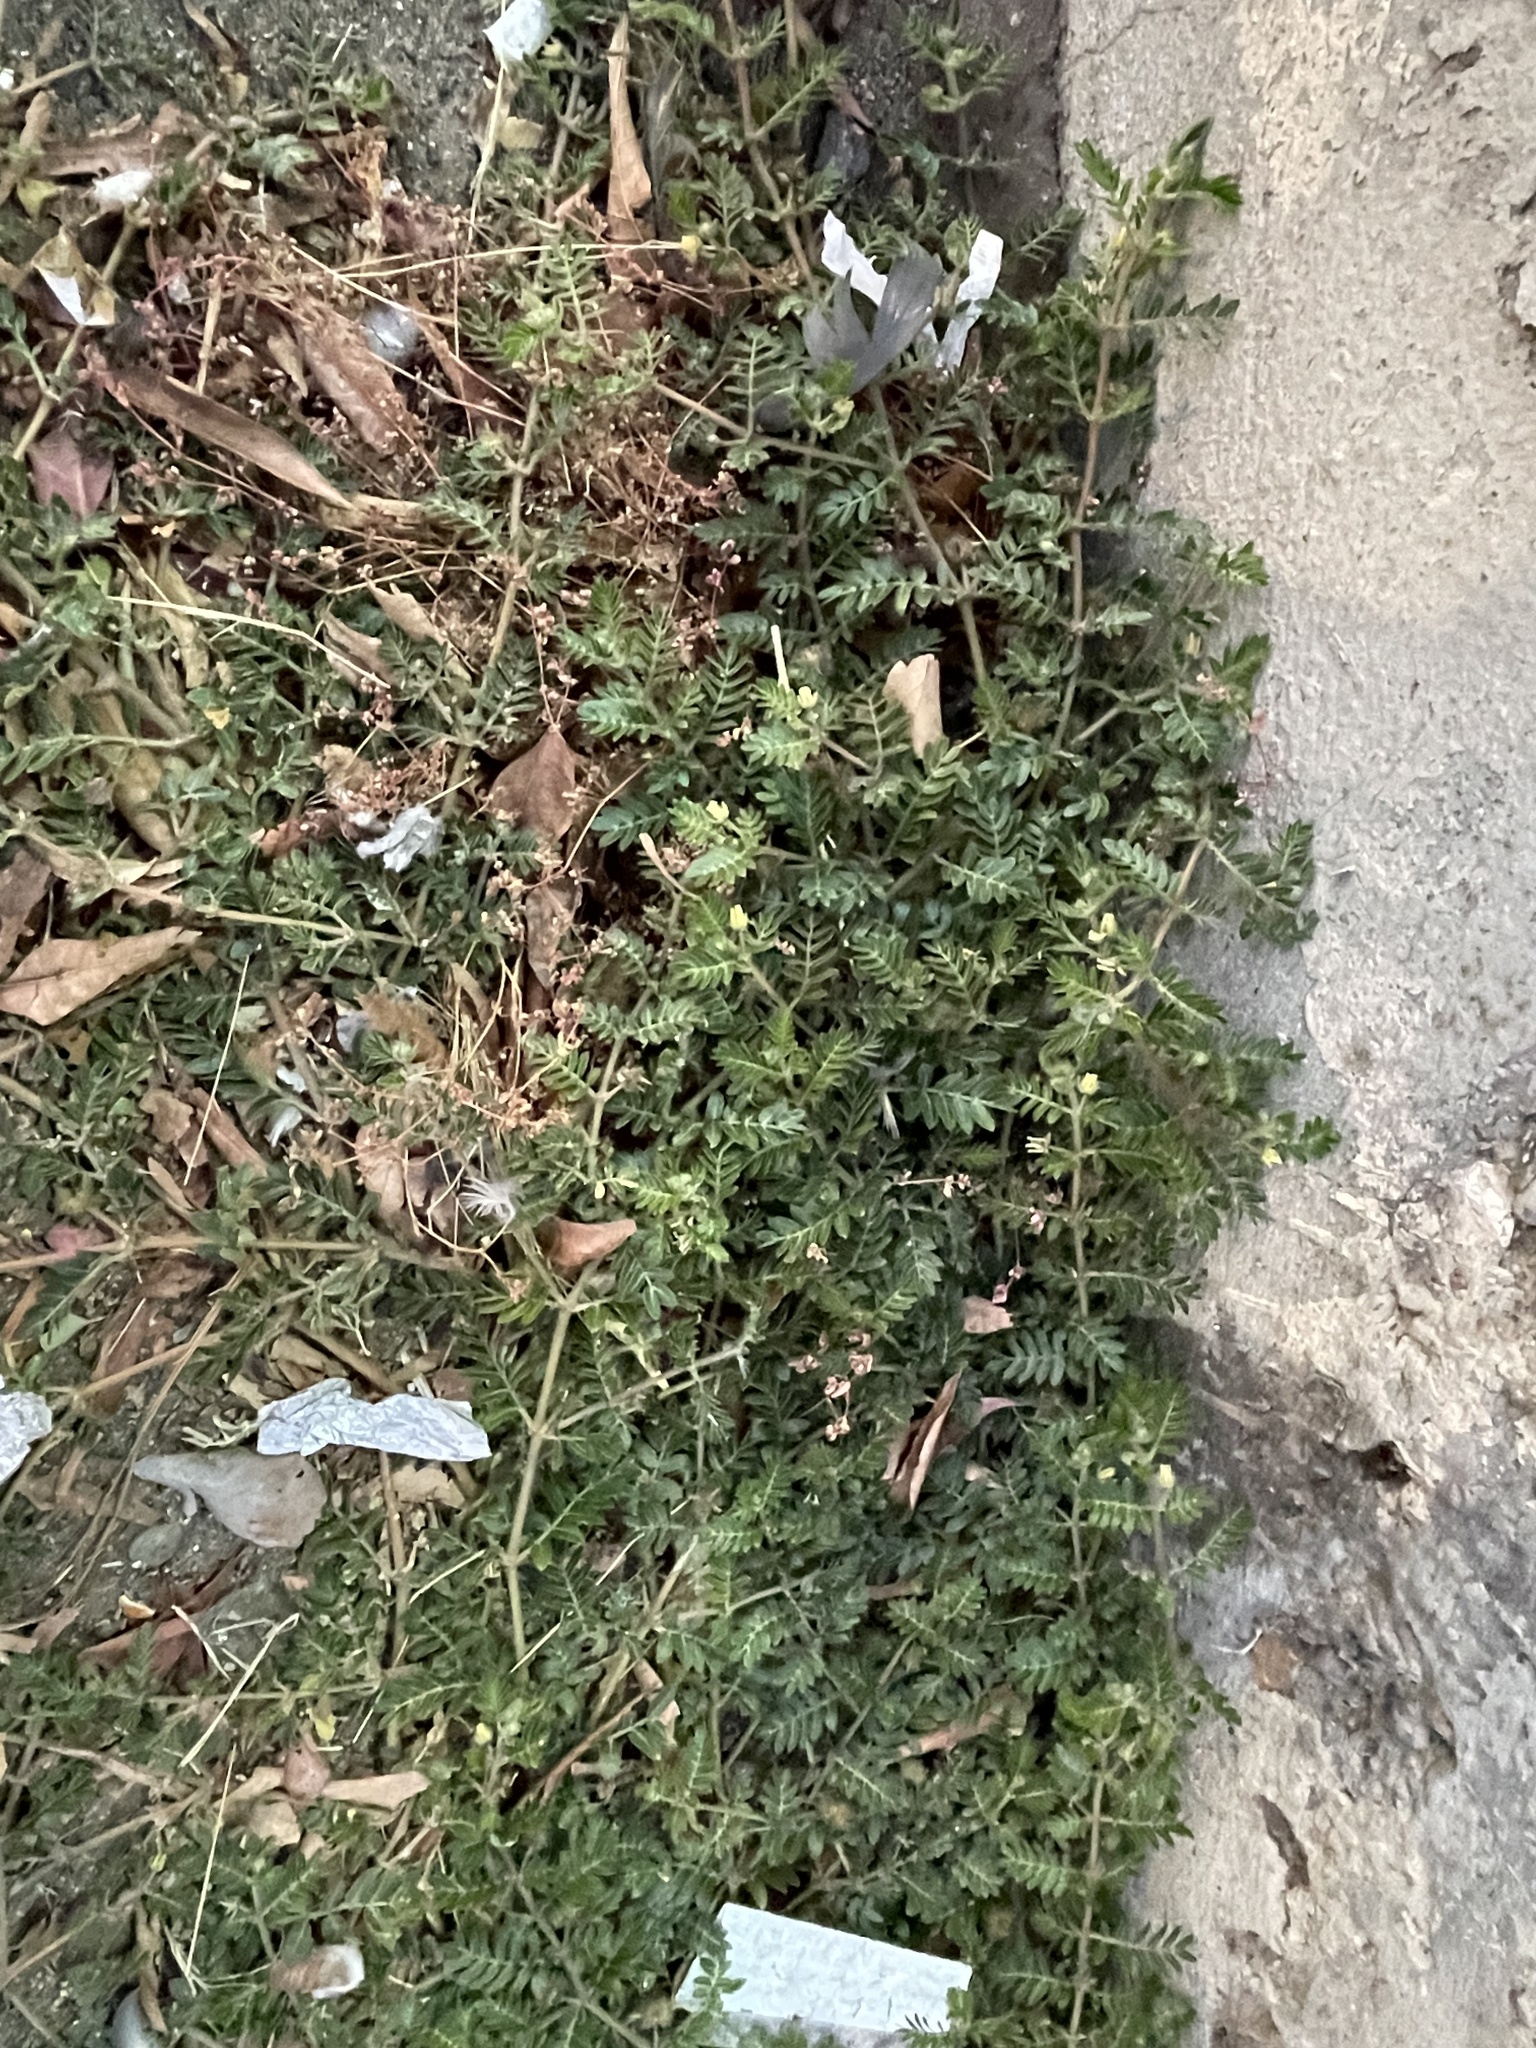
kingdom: Plantae
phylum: Tracheophyta
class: Magnoliopsida
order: Zygophyllales
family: Zygophyllaceae
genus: Tribulus
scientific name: Tribulus terrestris
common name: Puncturevine
